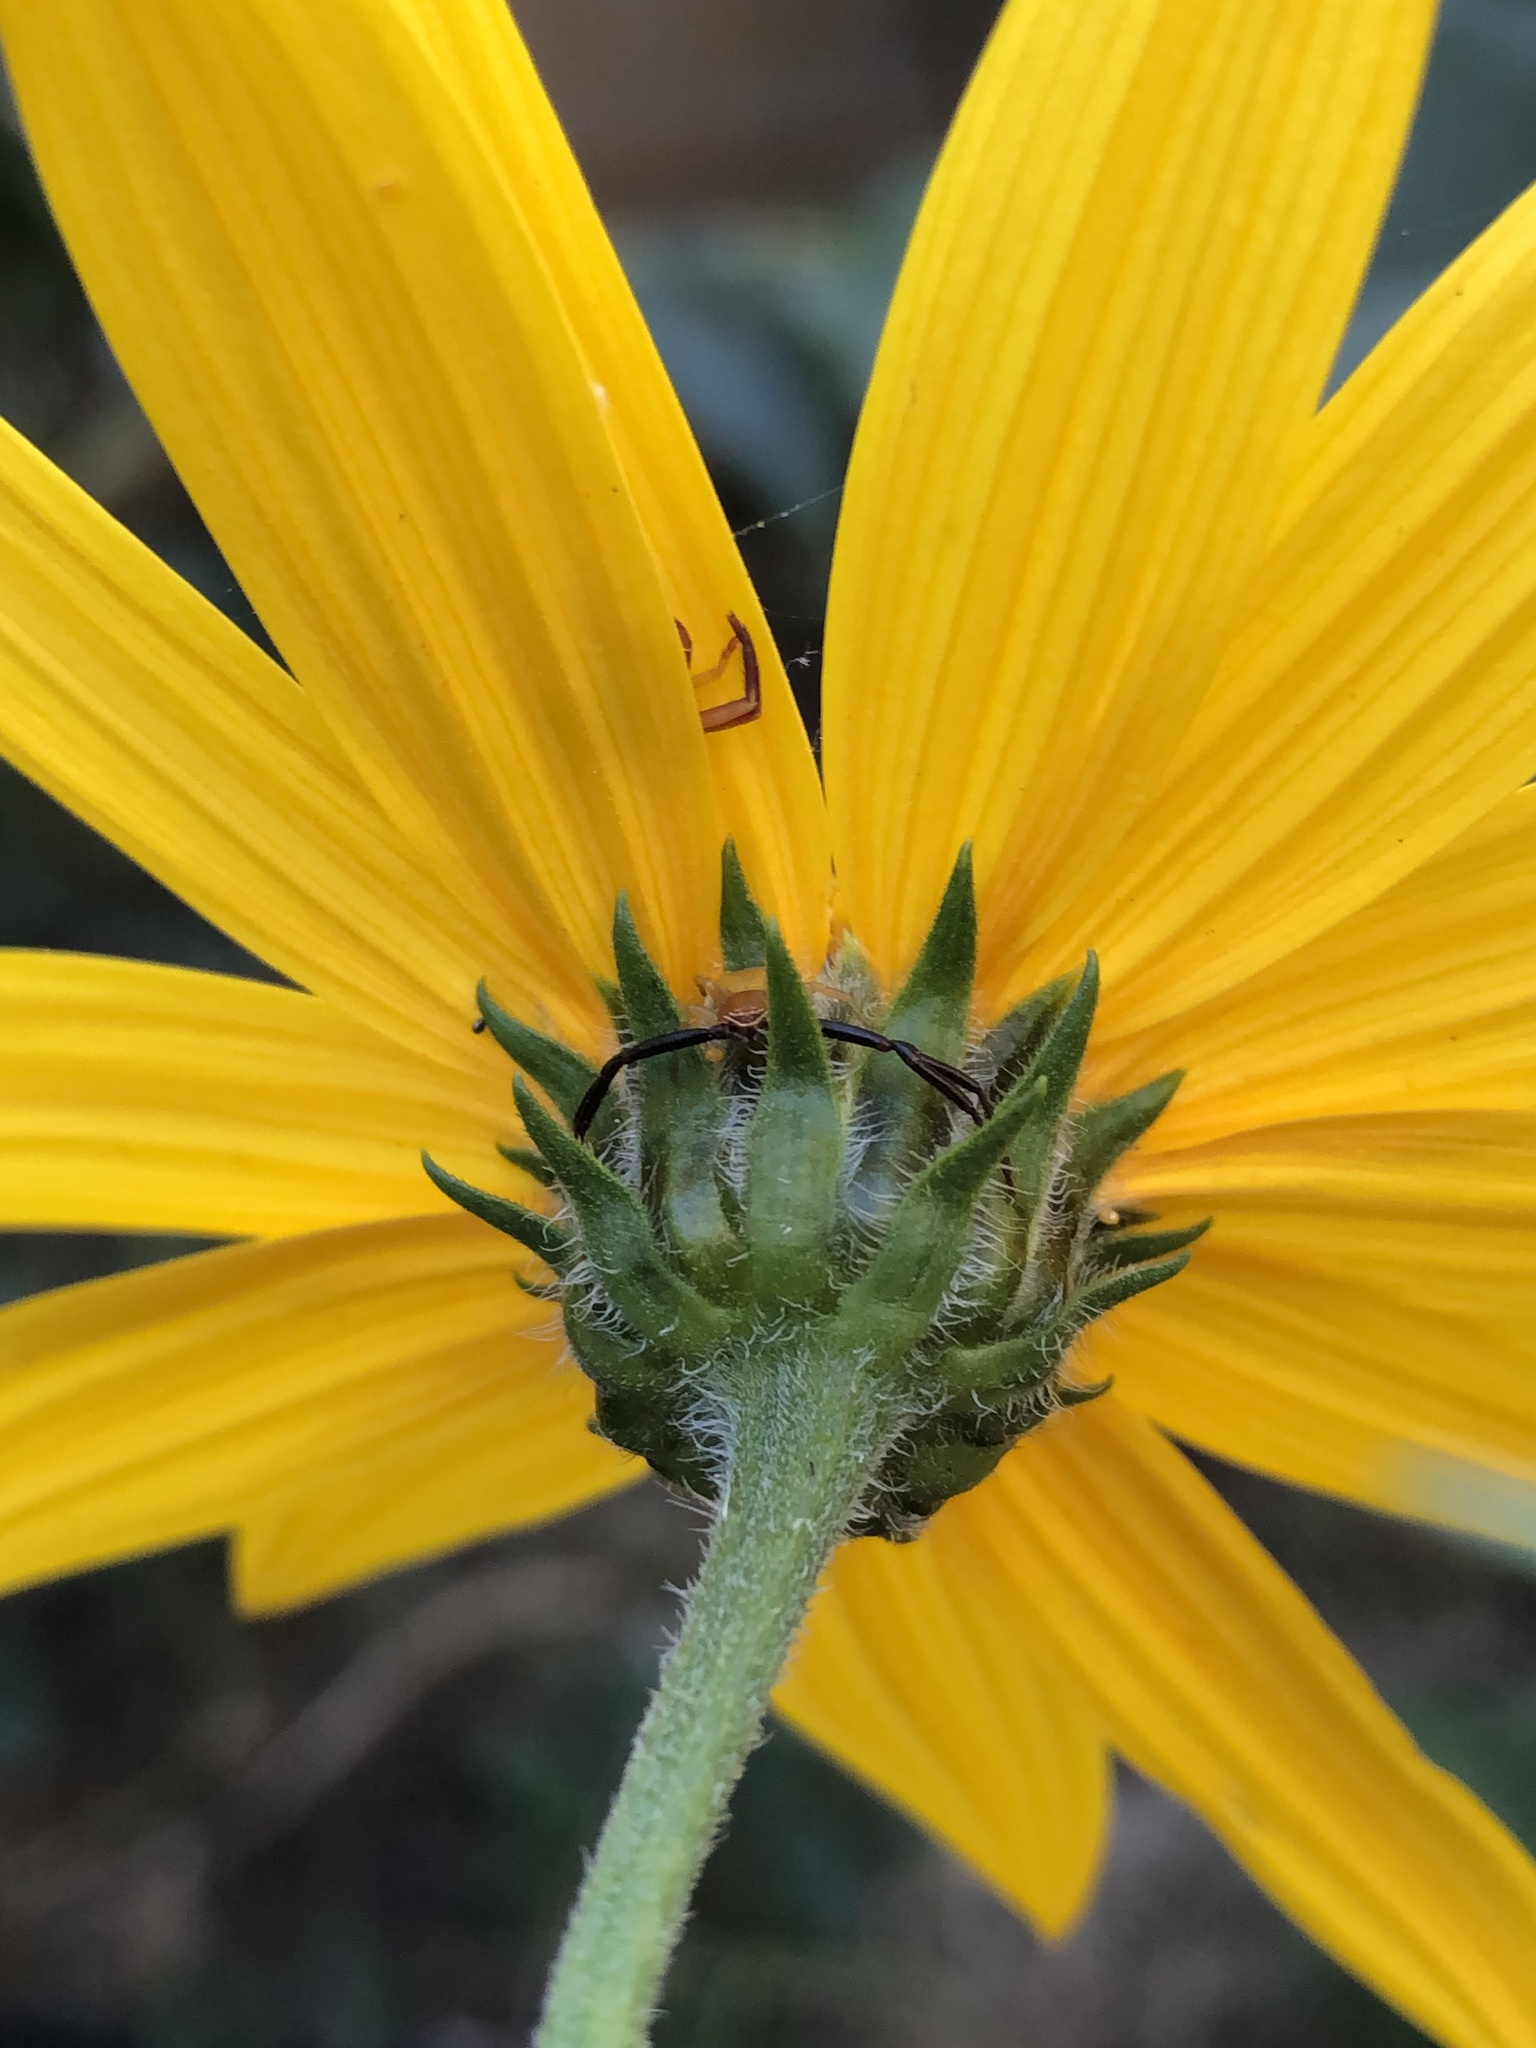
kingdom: Animalia
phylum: Arthropoda
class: Arachnida
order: Araneae
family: Thomisidae
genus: Misumenoides
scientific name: Misumenoides formosipes
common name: White-banded crab spider
